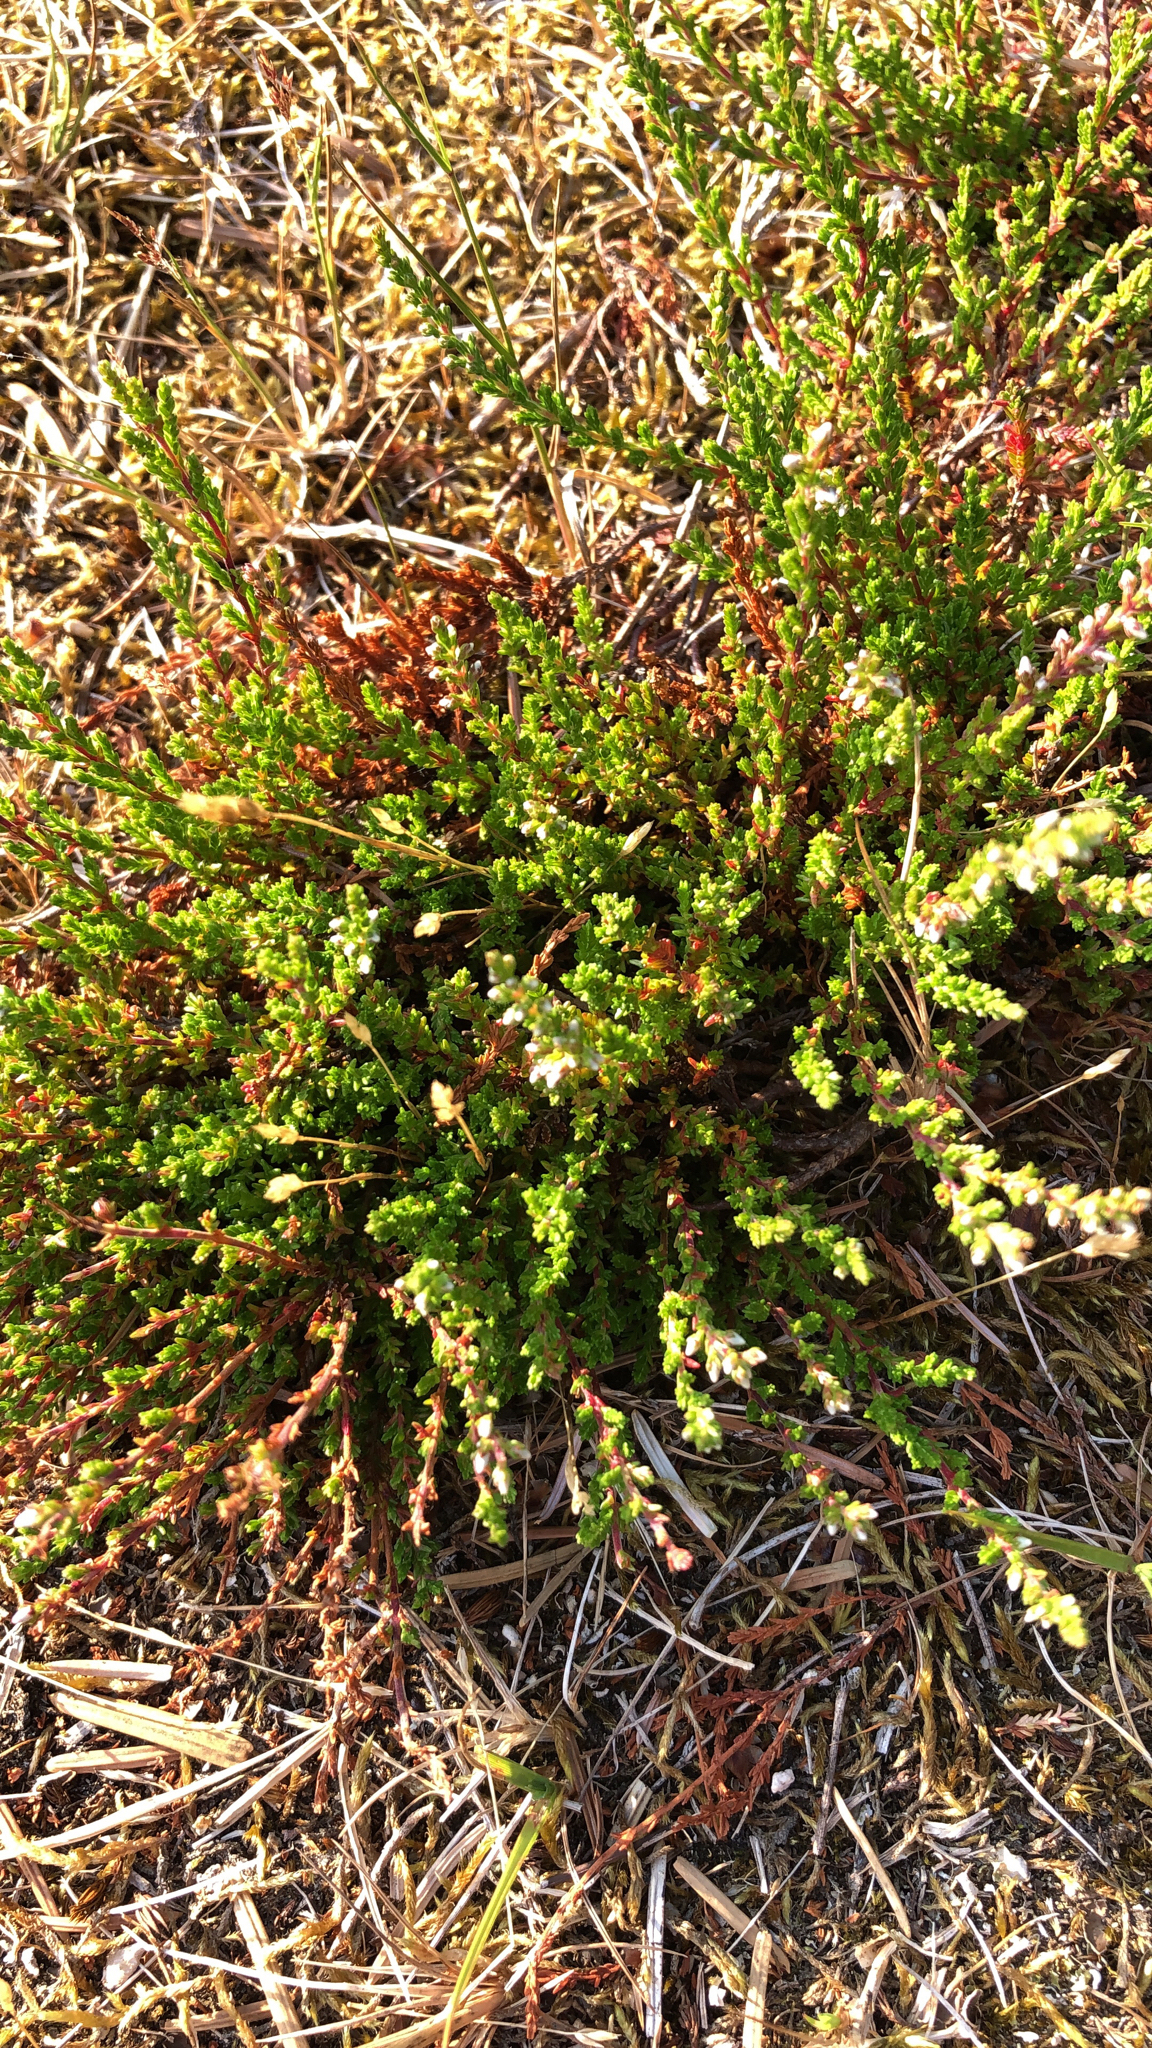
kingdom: Plantae
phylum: Tracheophyta
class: Magnoliopsida
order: Ericales
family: Ericaceae
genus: Calluna
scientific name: Calluna vulgaris
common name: Heather
